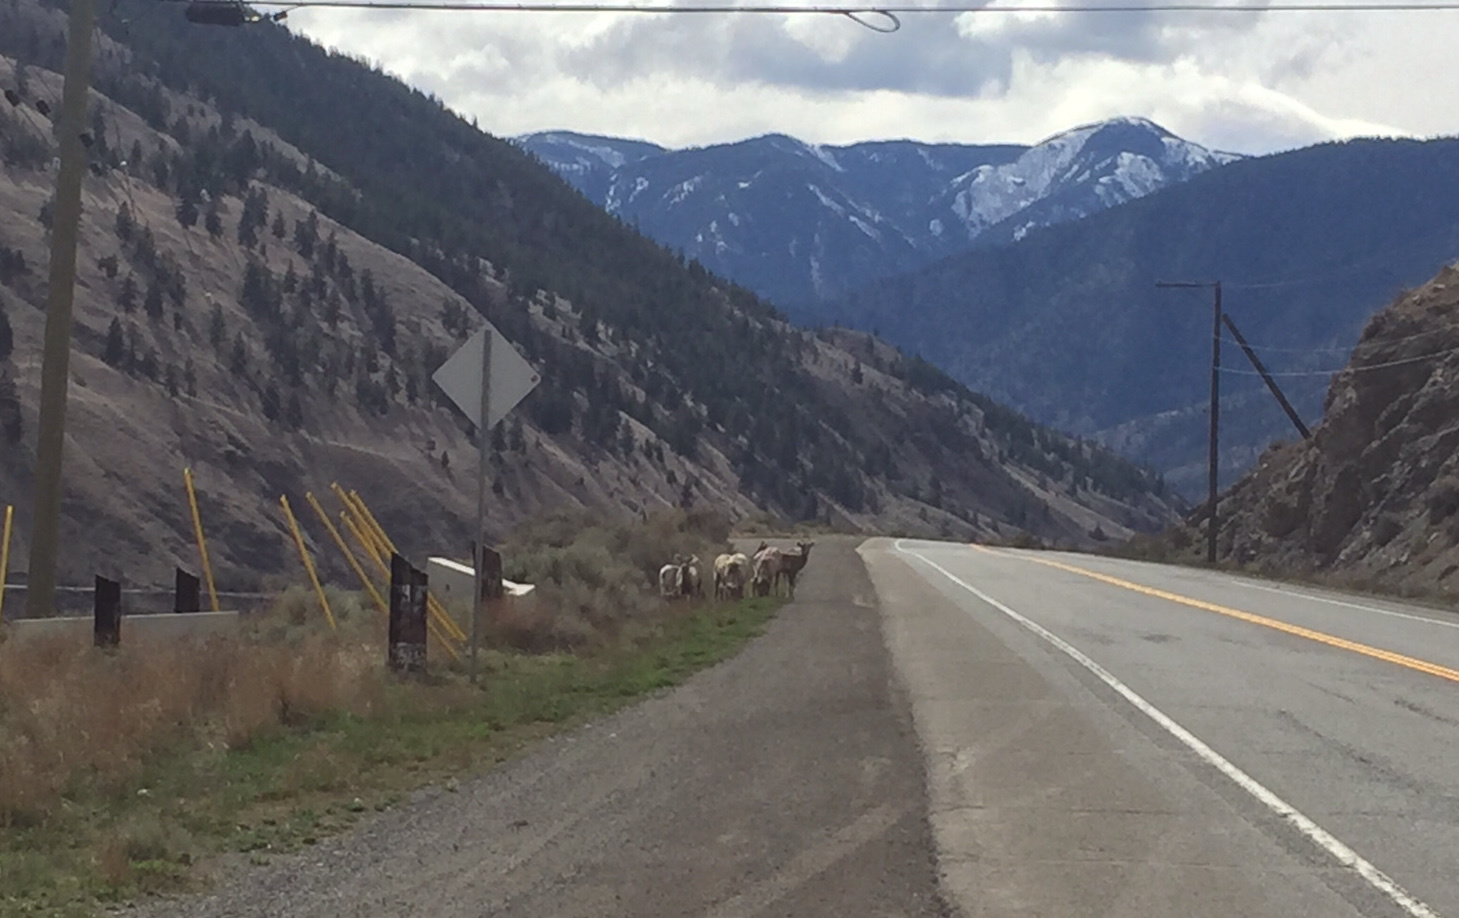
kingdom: Animalia
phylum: Chordata
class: Mammalia
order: Artiodactyla
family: Bovidae
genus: Ovis
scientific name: Ovis canadensis
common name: Bighorn sheep
